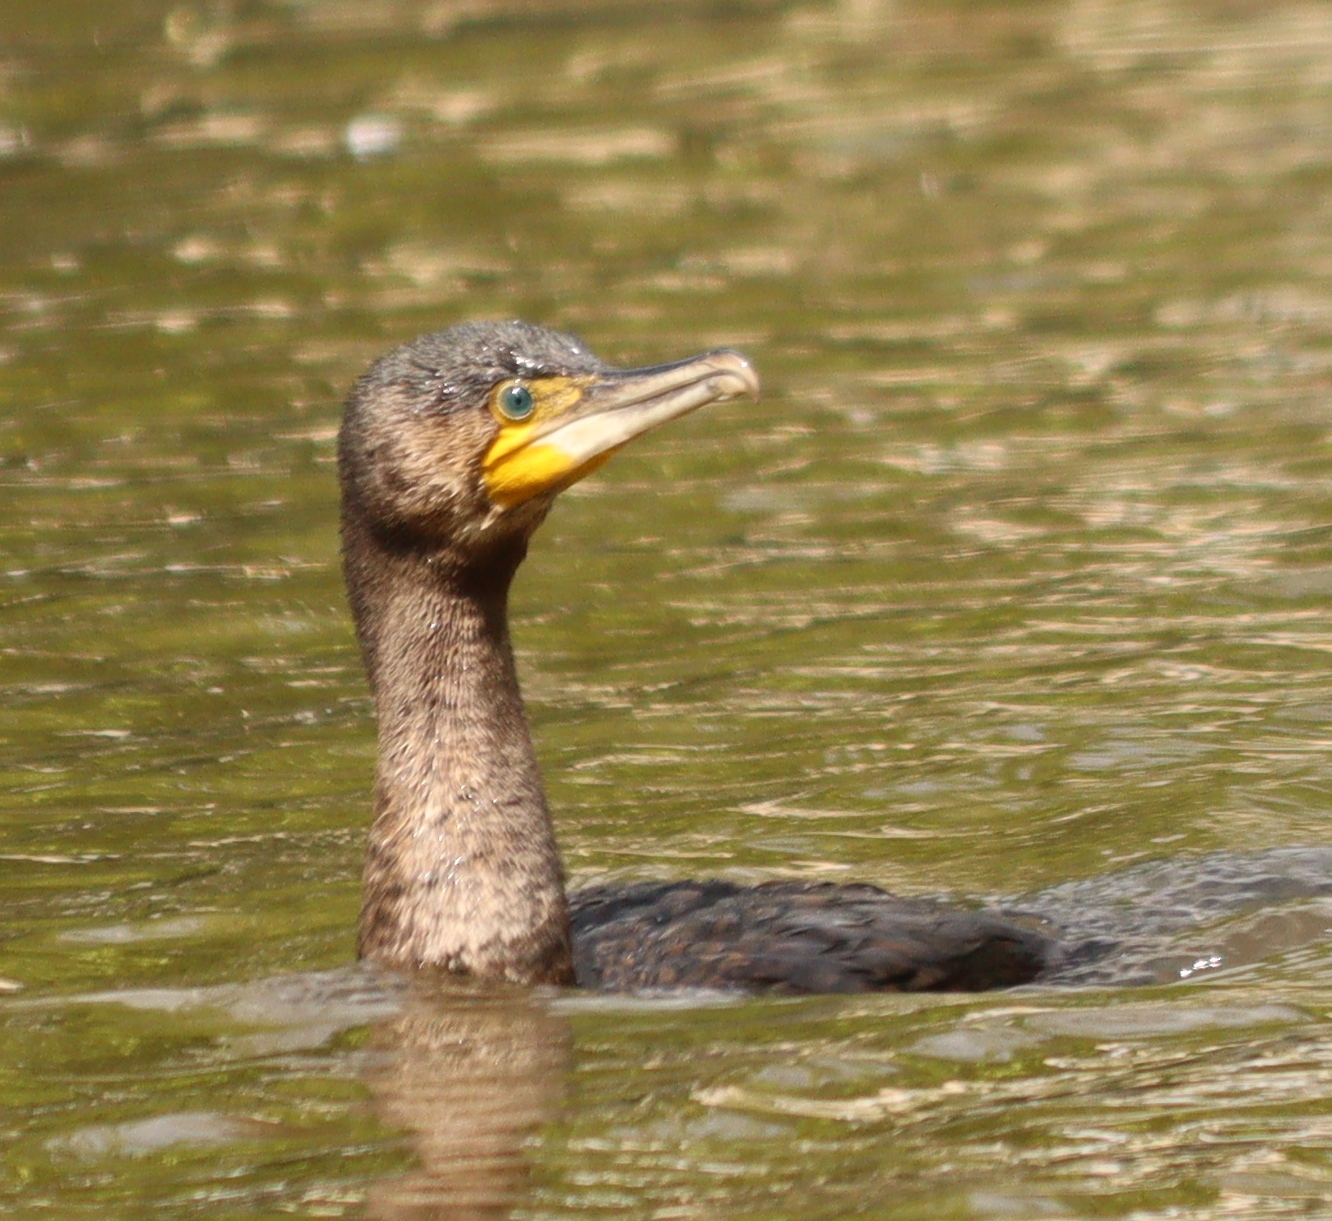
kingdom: Animalia
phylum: Chordata
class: Aves
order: Suliformes
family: Phalacrocoracidae
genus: Phalacrocorax
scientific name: Phalacrocorax carbo
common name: Great cormorant
